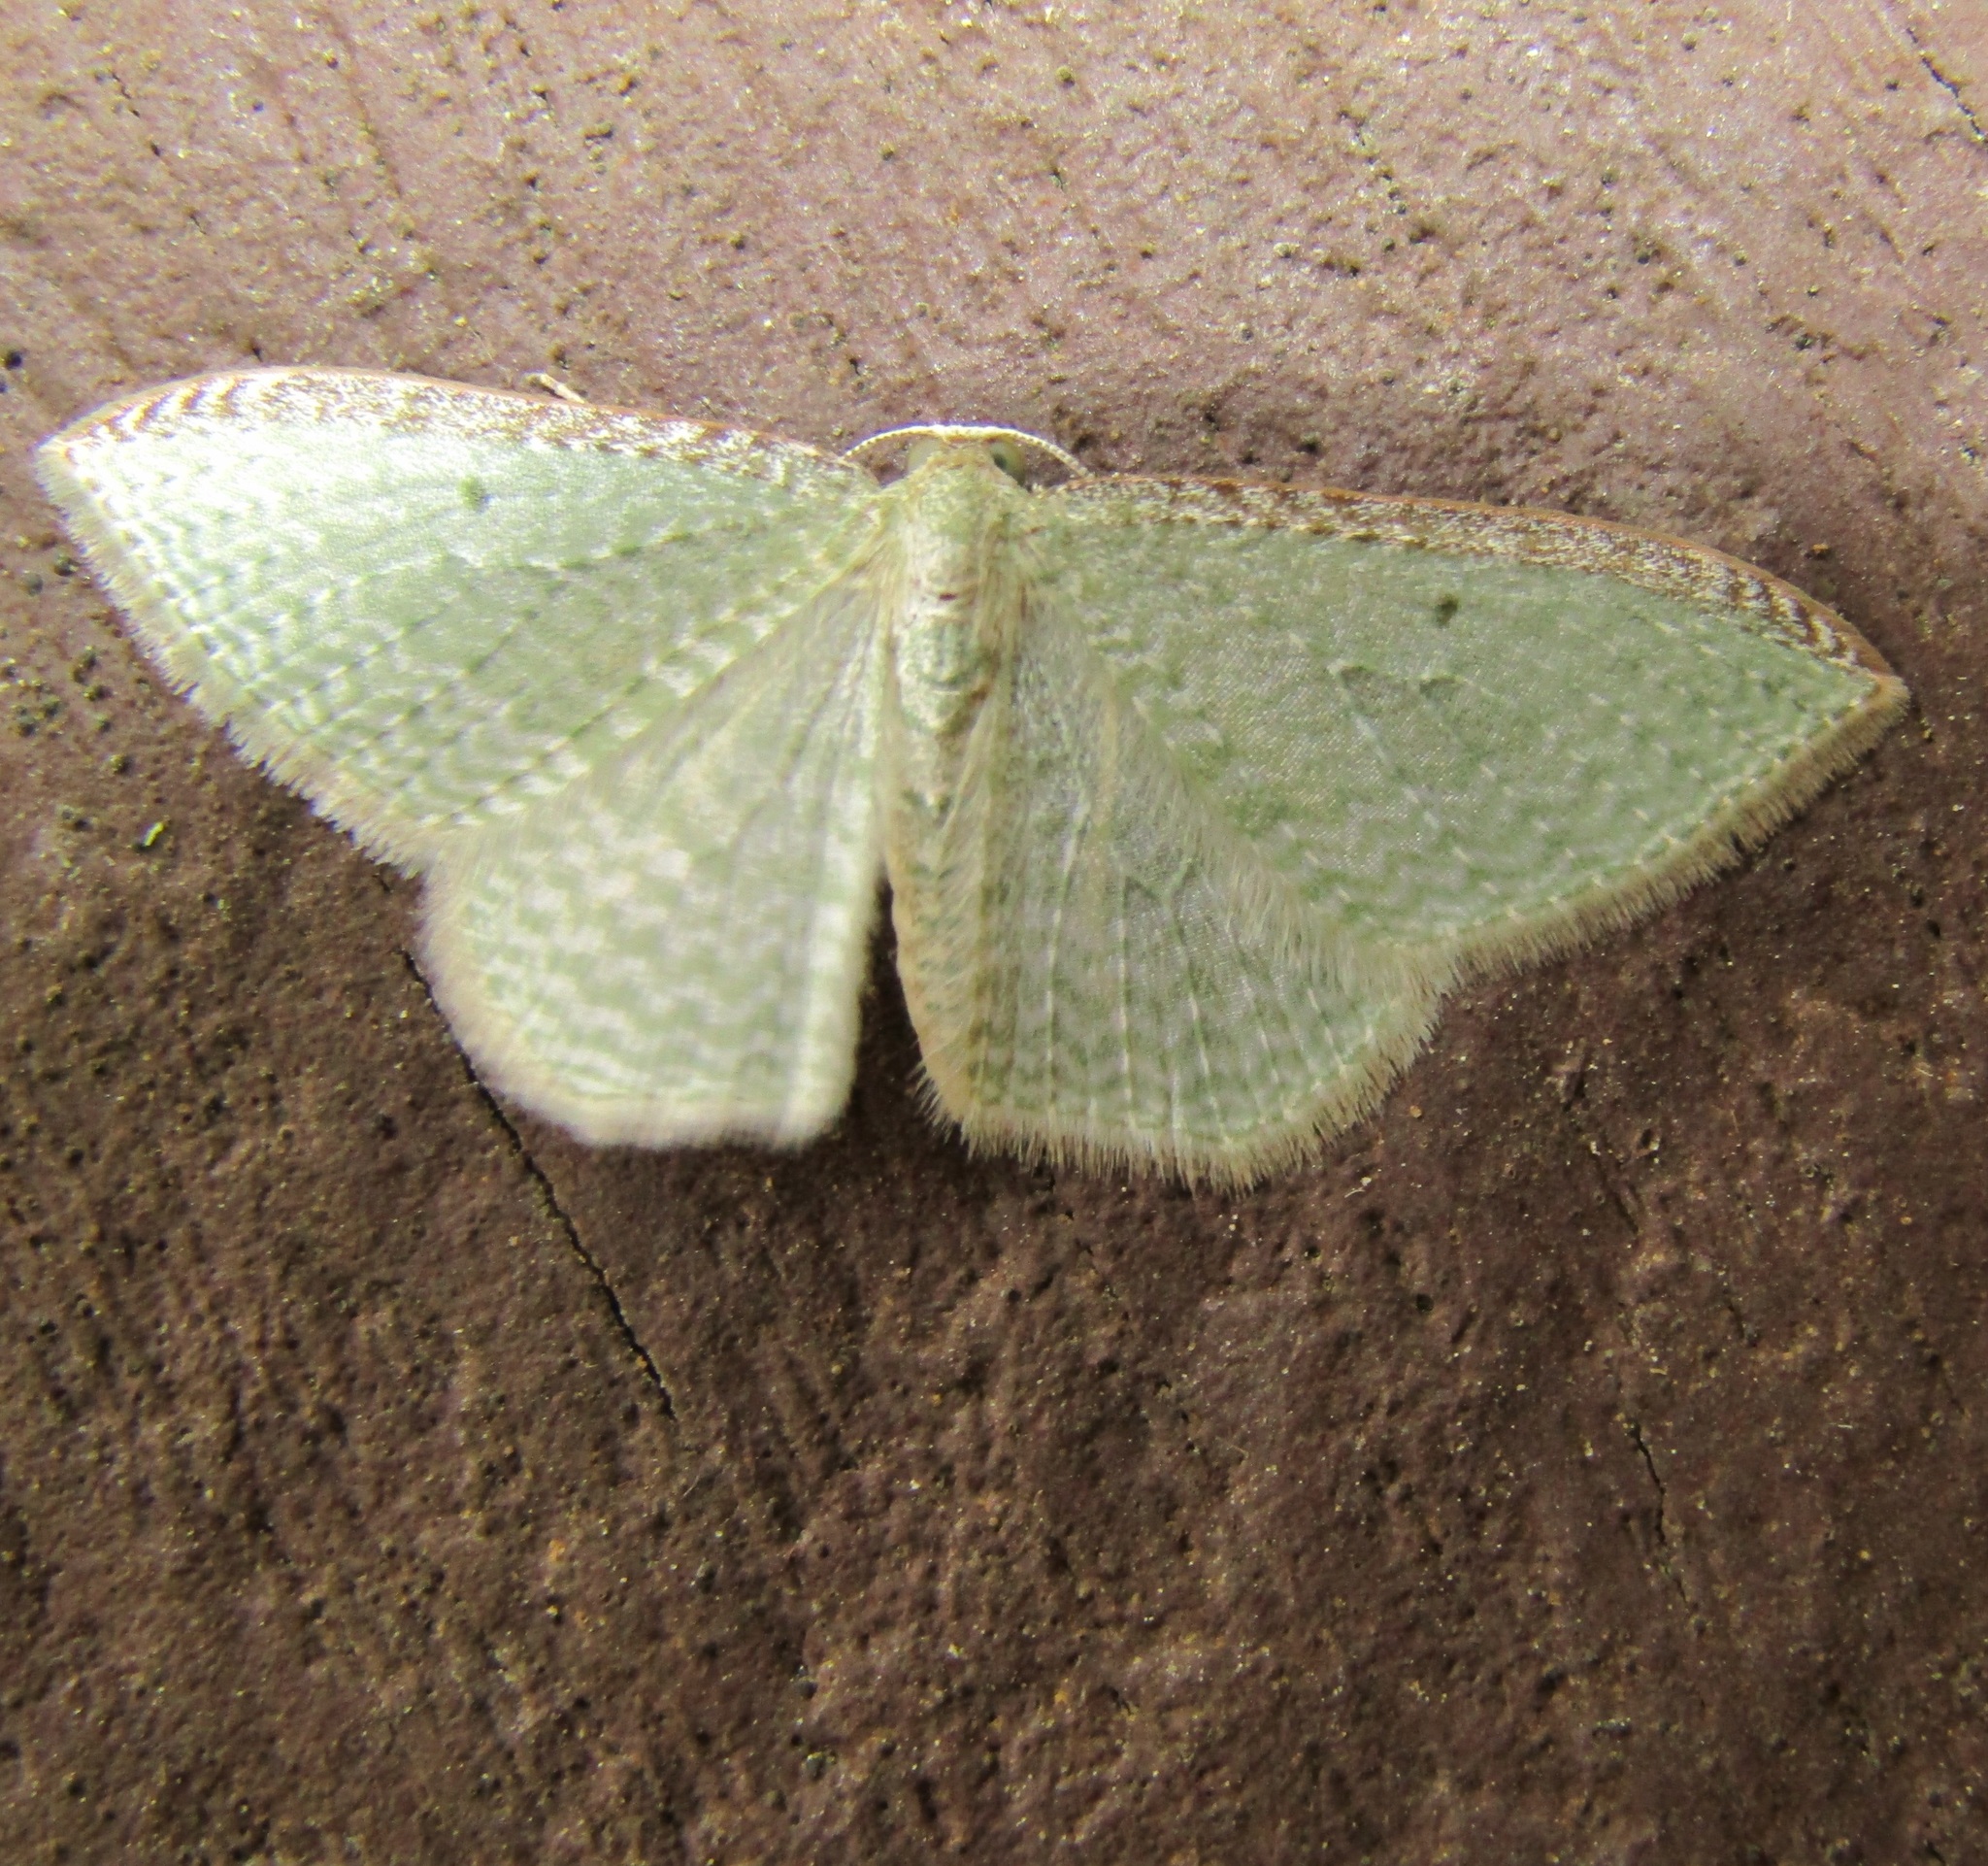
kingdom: Animalia
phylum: Arthropoda
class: Insecta
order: Lepidoptera
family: Geometridae
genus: Poecilasthena
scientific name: Poecilasthena pulchraria
